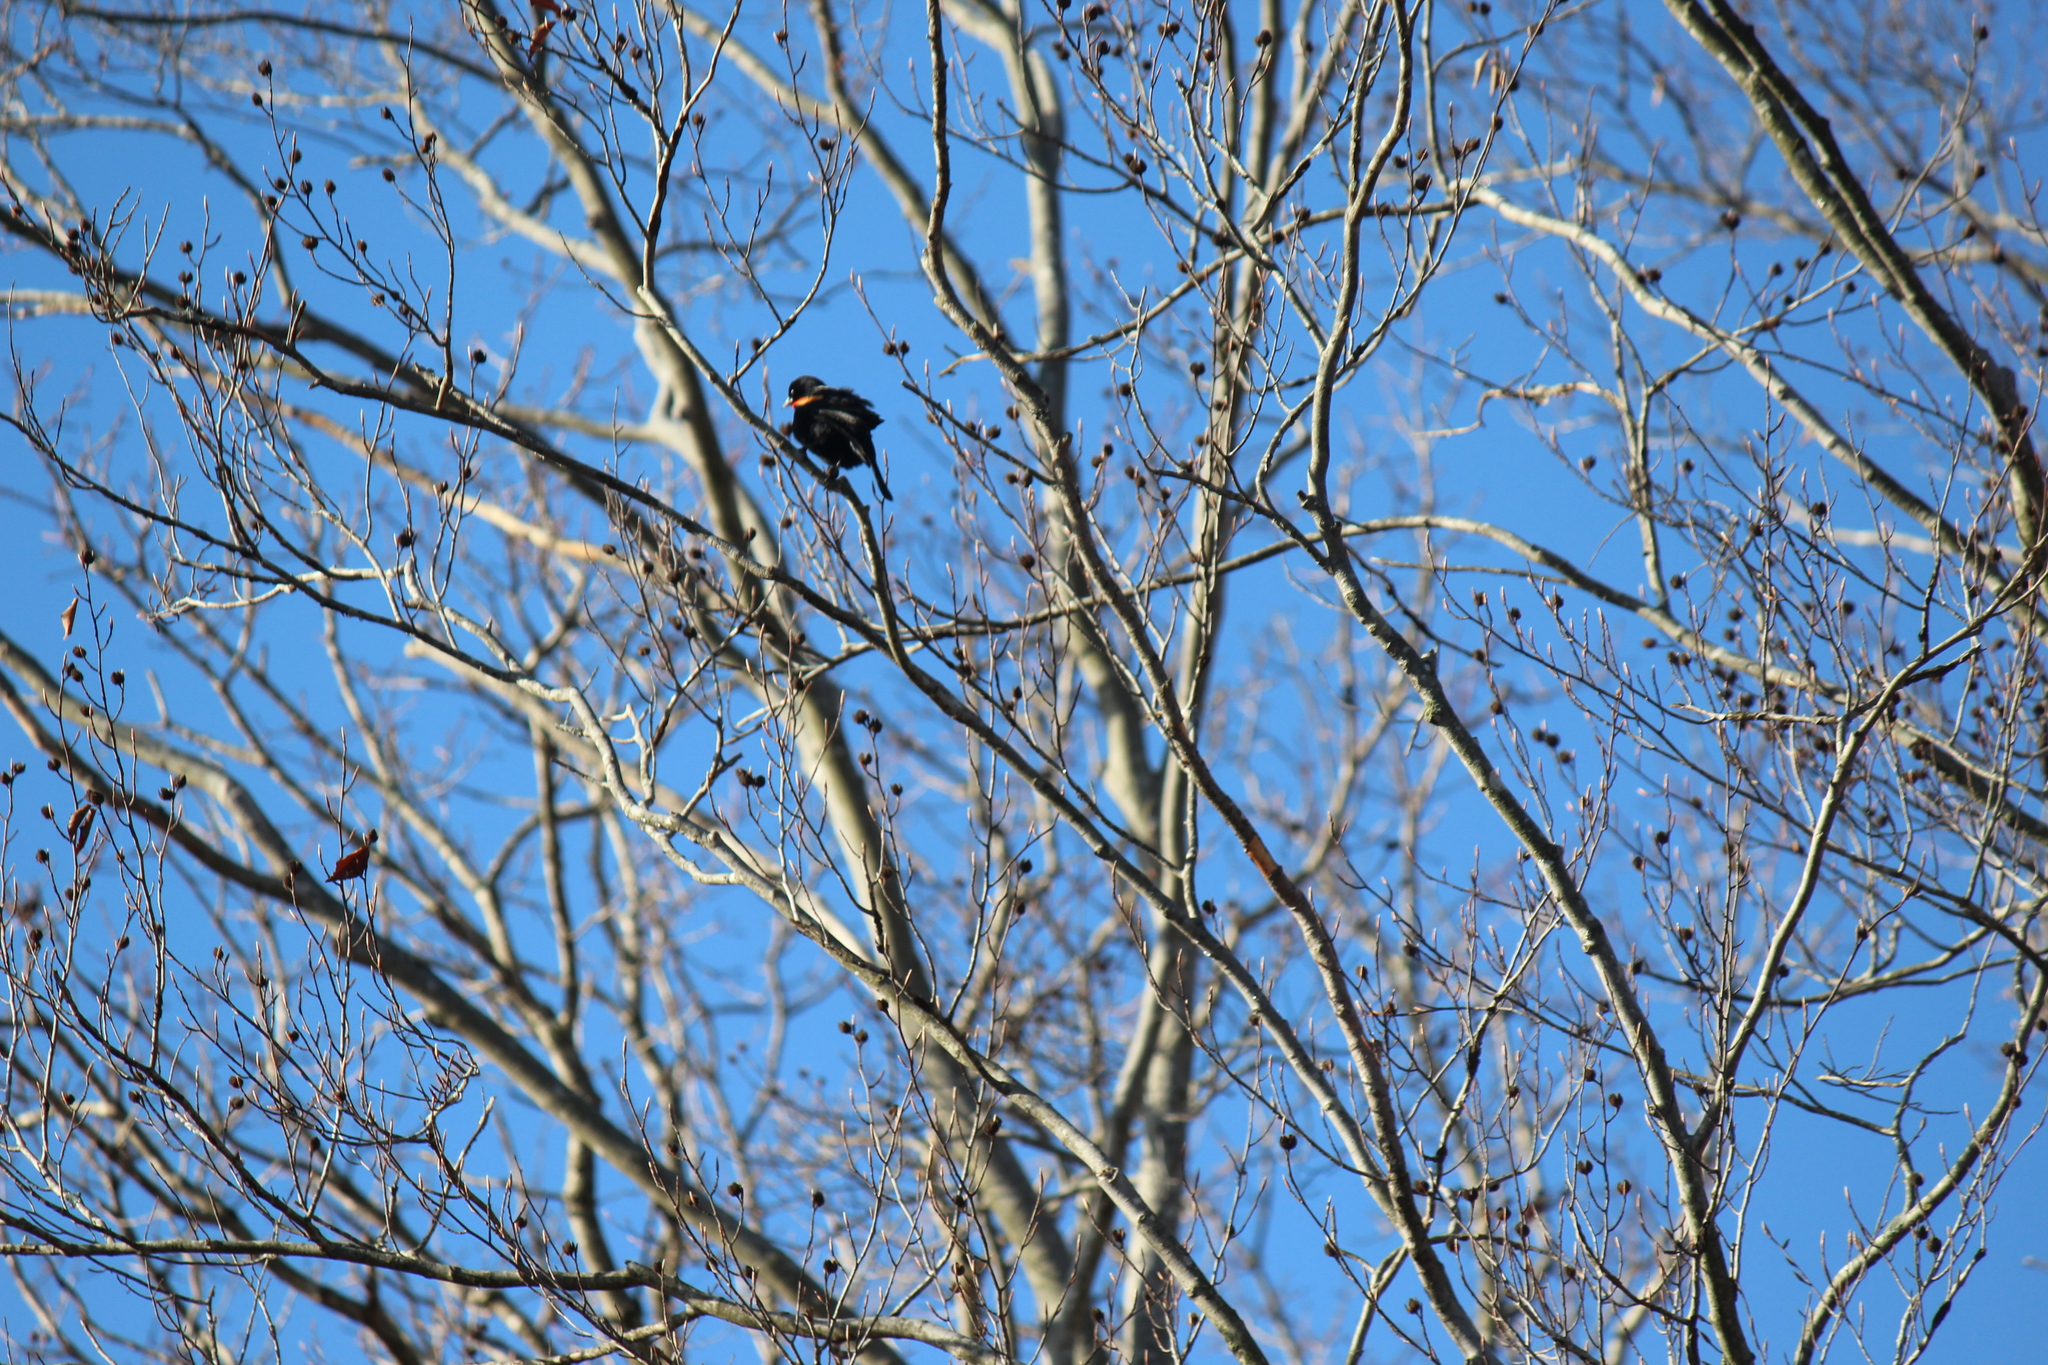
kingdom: Animalia
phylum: Chordata
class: Aves
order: Passeriformes
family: Icteridae
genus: Agelaius
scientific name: Agelaius phoeniceus
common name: Red-winged blackbird
